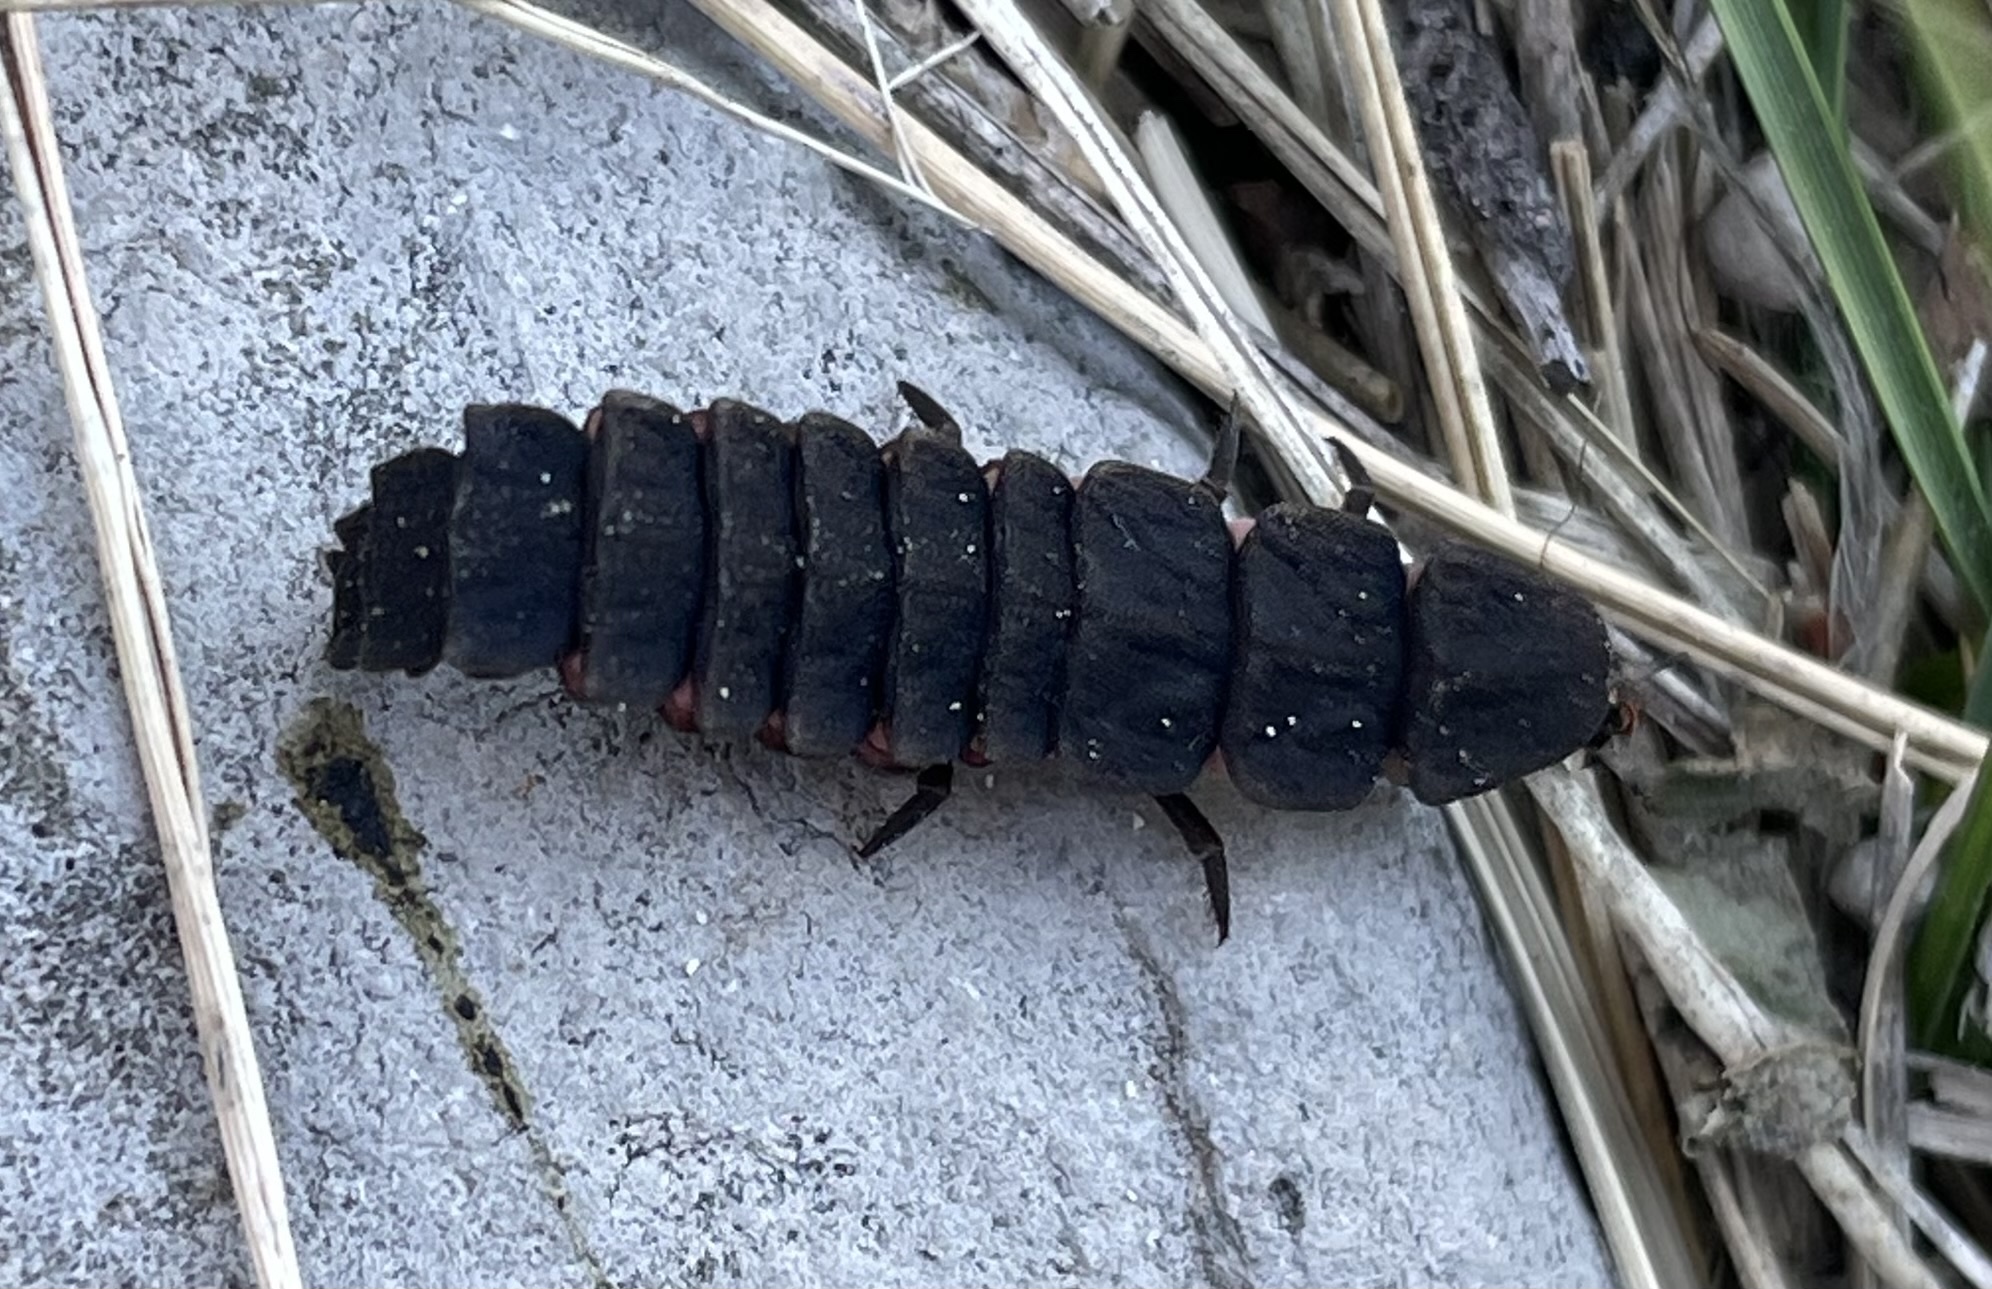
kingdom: Animalia
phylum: Arthropoda
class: Insecta
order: Coleoptera
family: Lampyridae
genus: Nyctophila
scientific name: Nyctophila reichii
